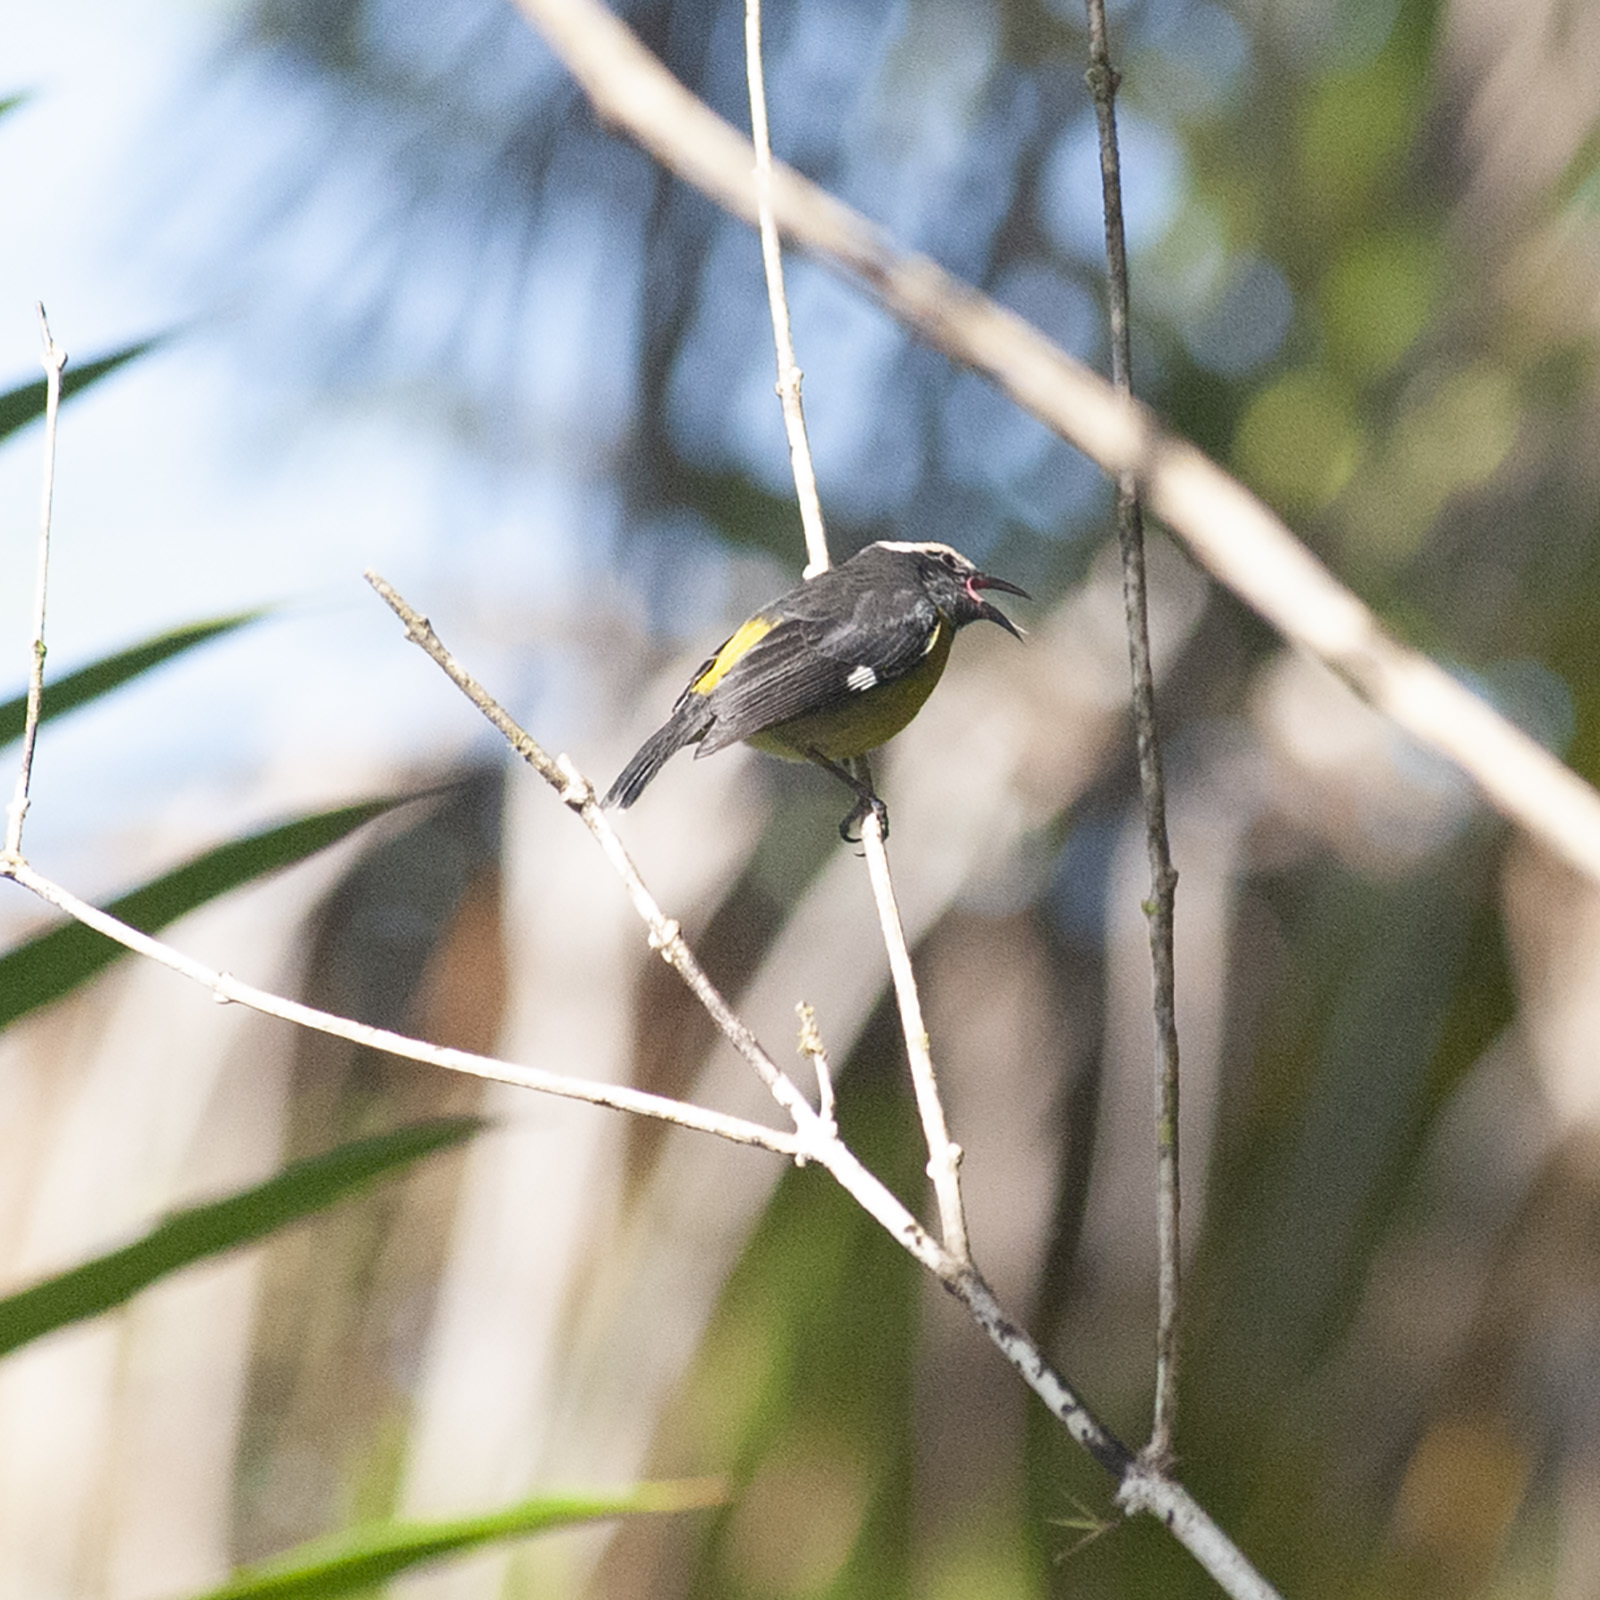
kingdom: Animalia
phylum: Chordata
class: Aves
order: Passeriformes
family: Thraupidae
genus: Coereba
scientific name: Coereba flaveola
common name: Bananaquit
